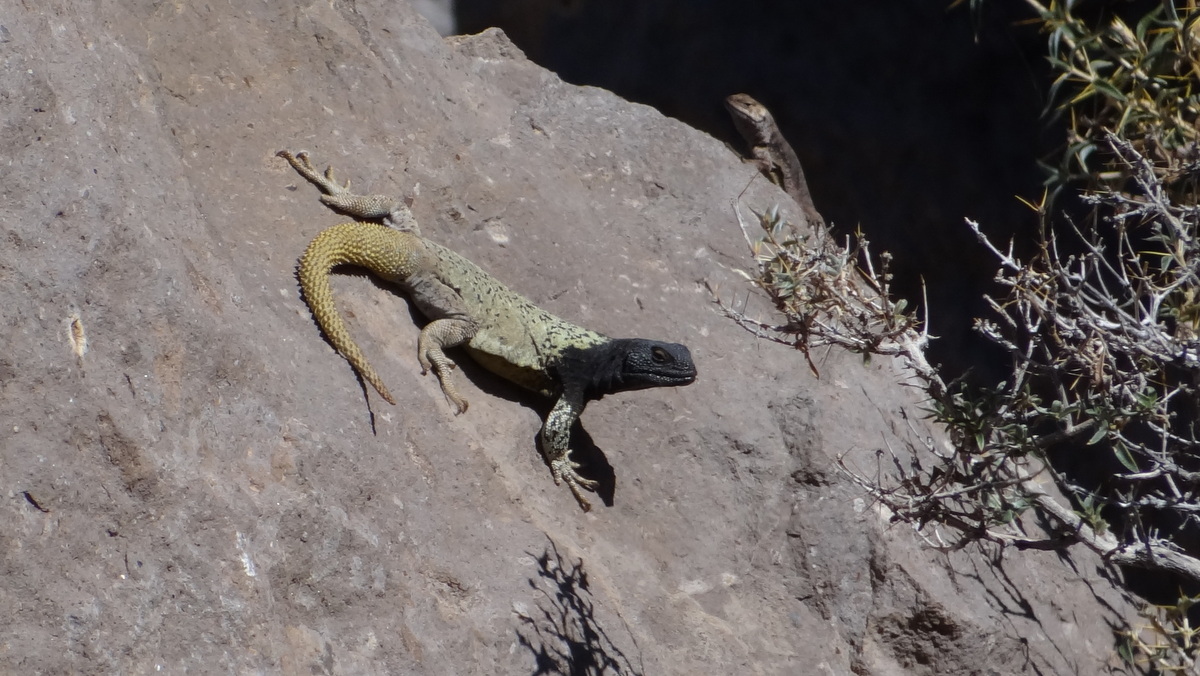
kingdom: Animalia
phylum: Chordata
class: Squamata
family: Liolaemidae
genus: Phymaturus
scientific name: Phymaturus verdugo
